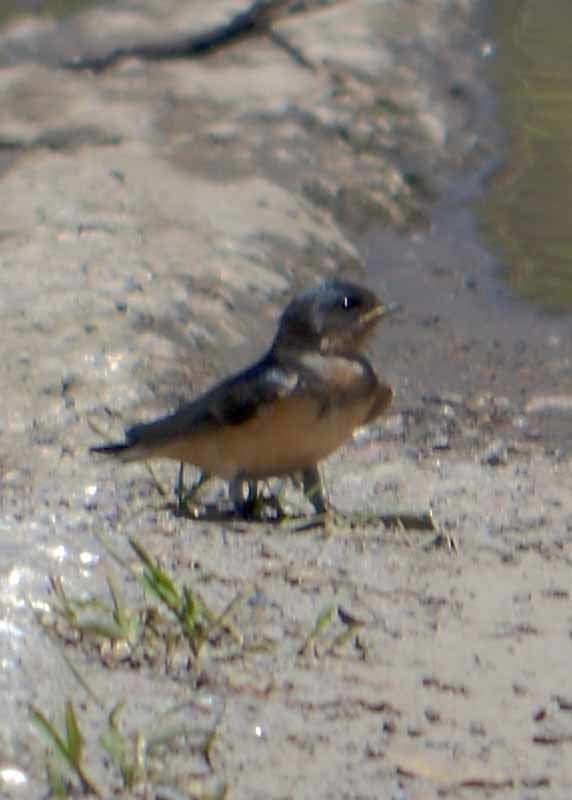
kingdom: Animalia
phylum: Chordata
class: Aves
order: Passeriformes
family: Hirundinidae
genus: Hirundo
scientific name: Hirundo rustica
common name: Barn swallow
